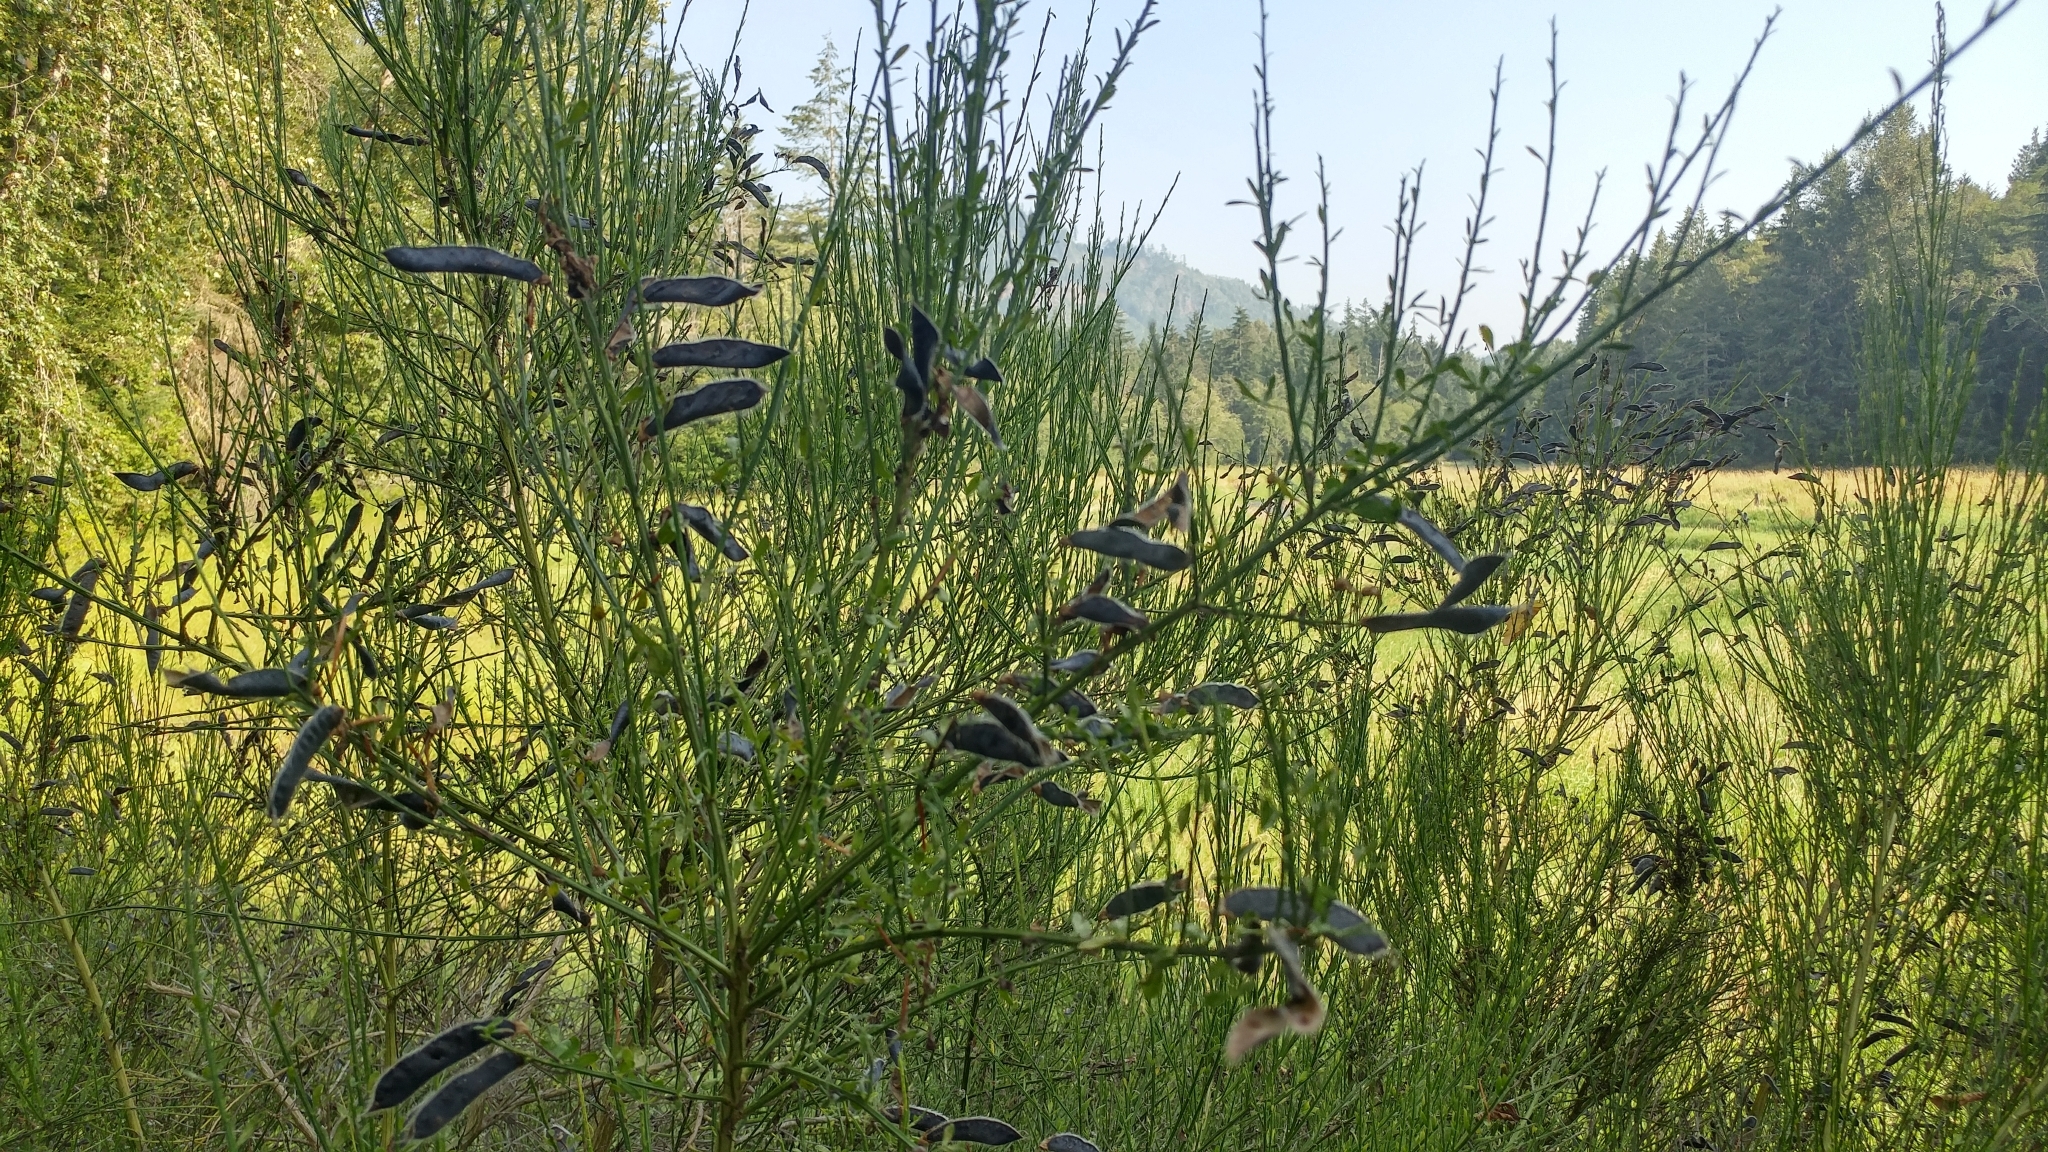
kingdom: Plantae
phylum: Tracheophyta
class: Magnoliopsida
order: Fabales
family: Fabaceae
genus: Cytisus
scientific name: Cytisus scoparius
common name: Scotch broom
